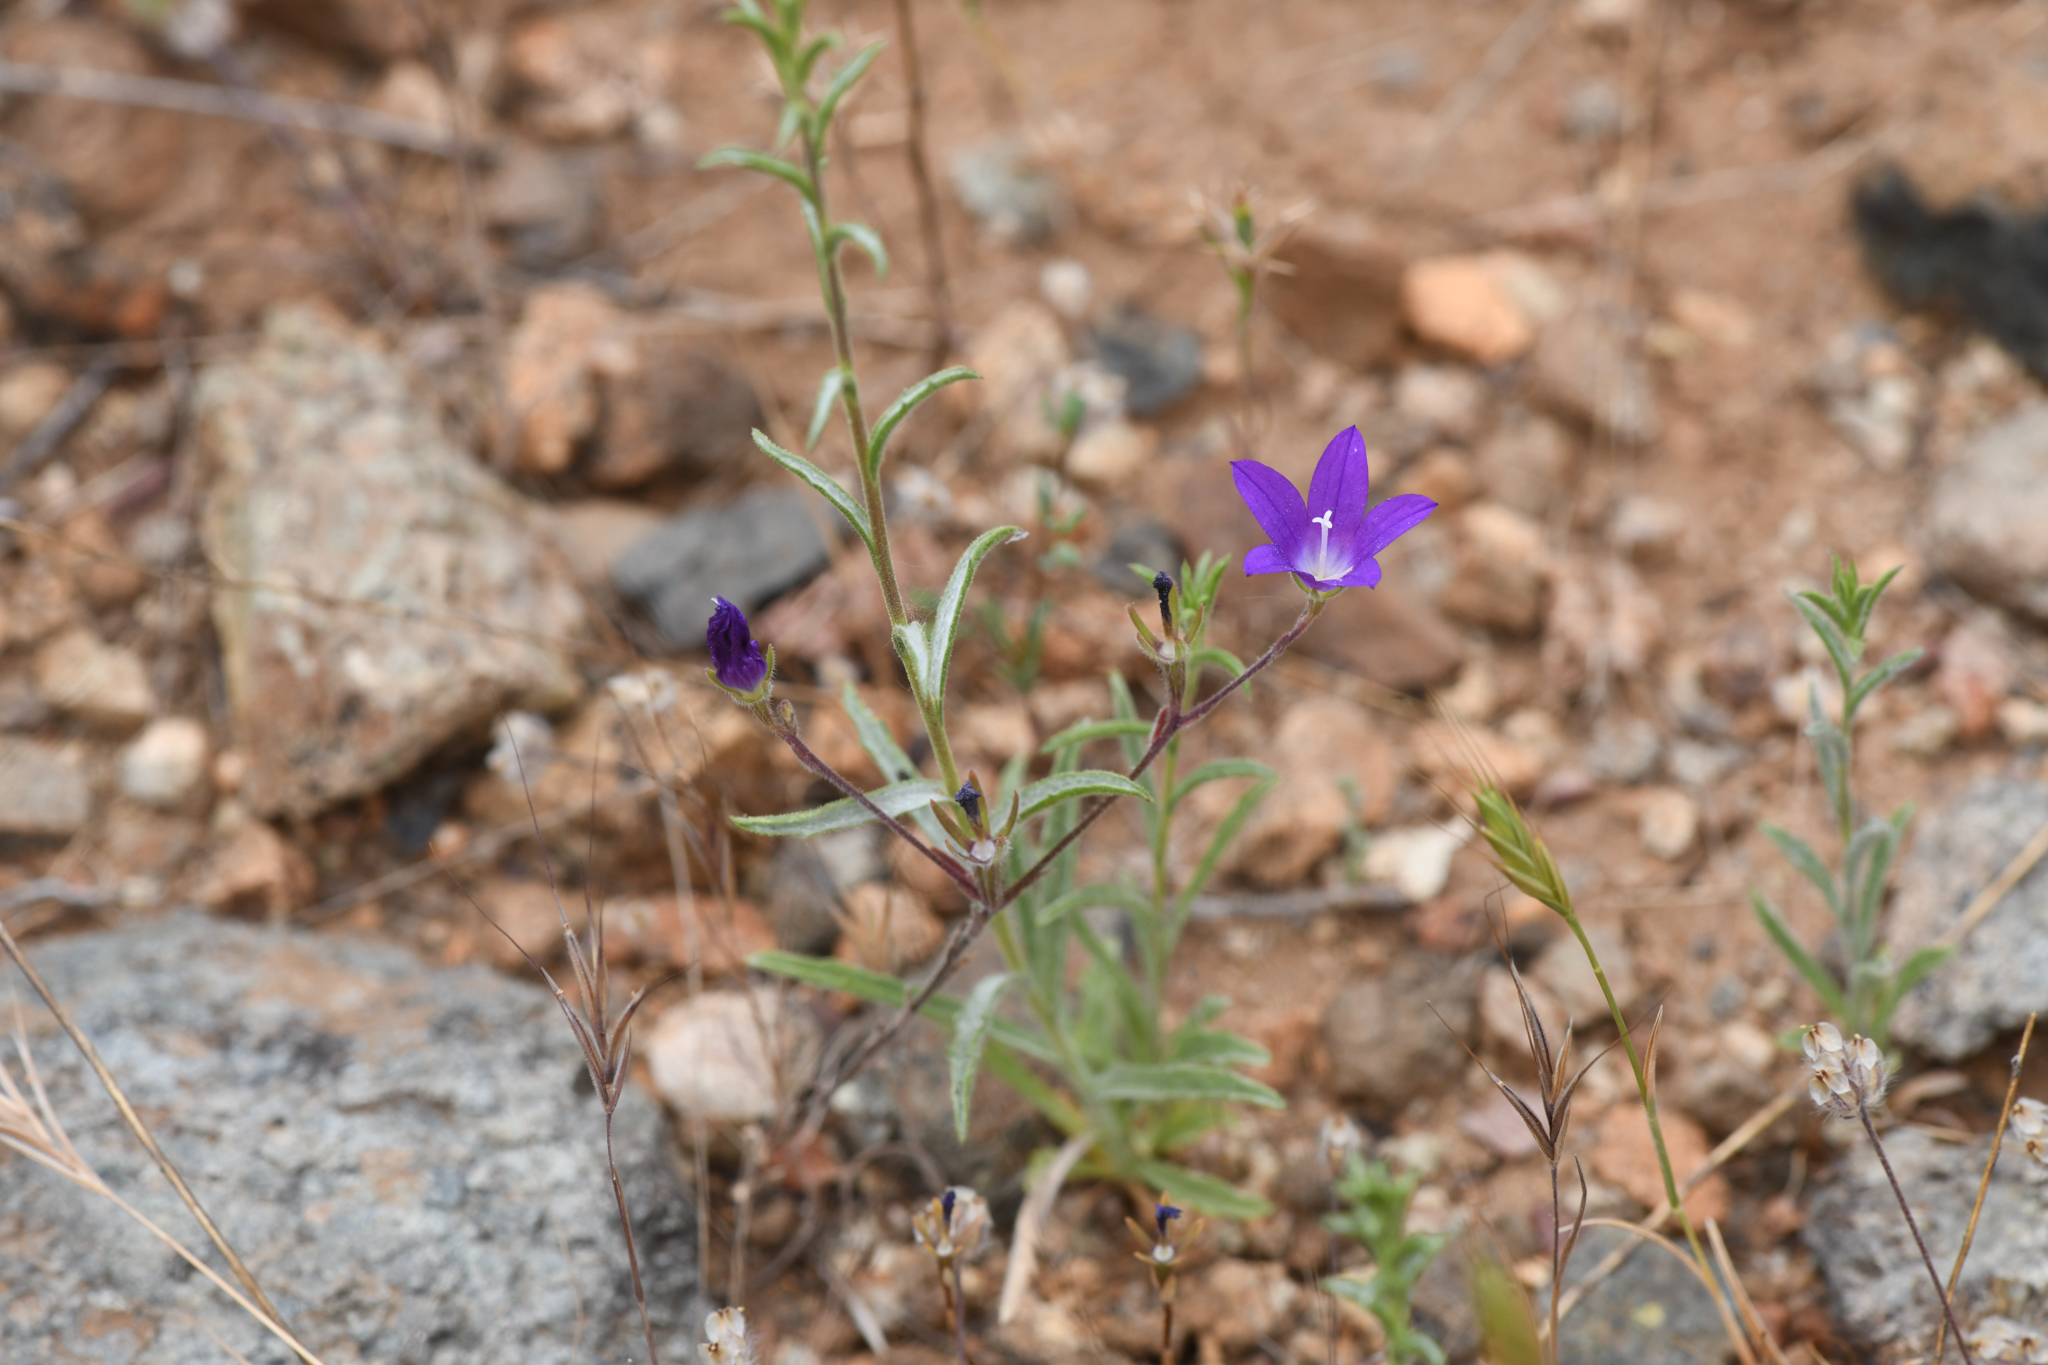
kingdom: Plantae
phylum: Tracheophyta
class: Magnoliopsida
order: Asterales
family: Campanulaceae
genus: Githopsis
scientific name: Githopsis pulchella
